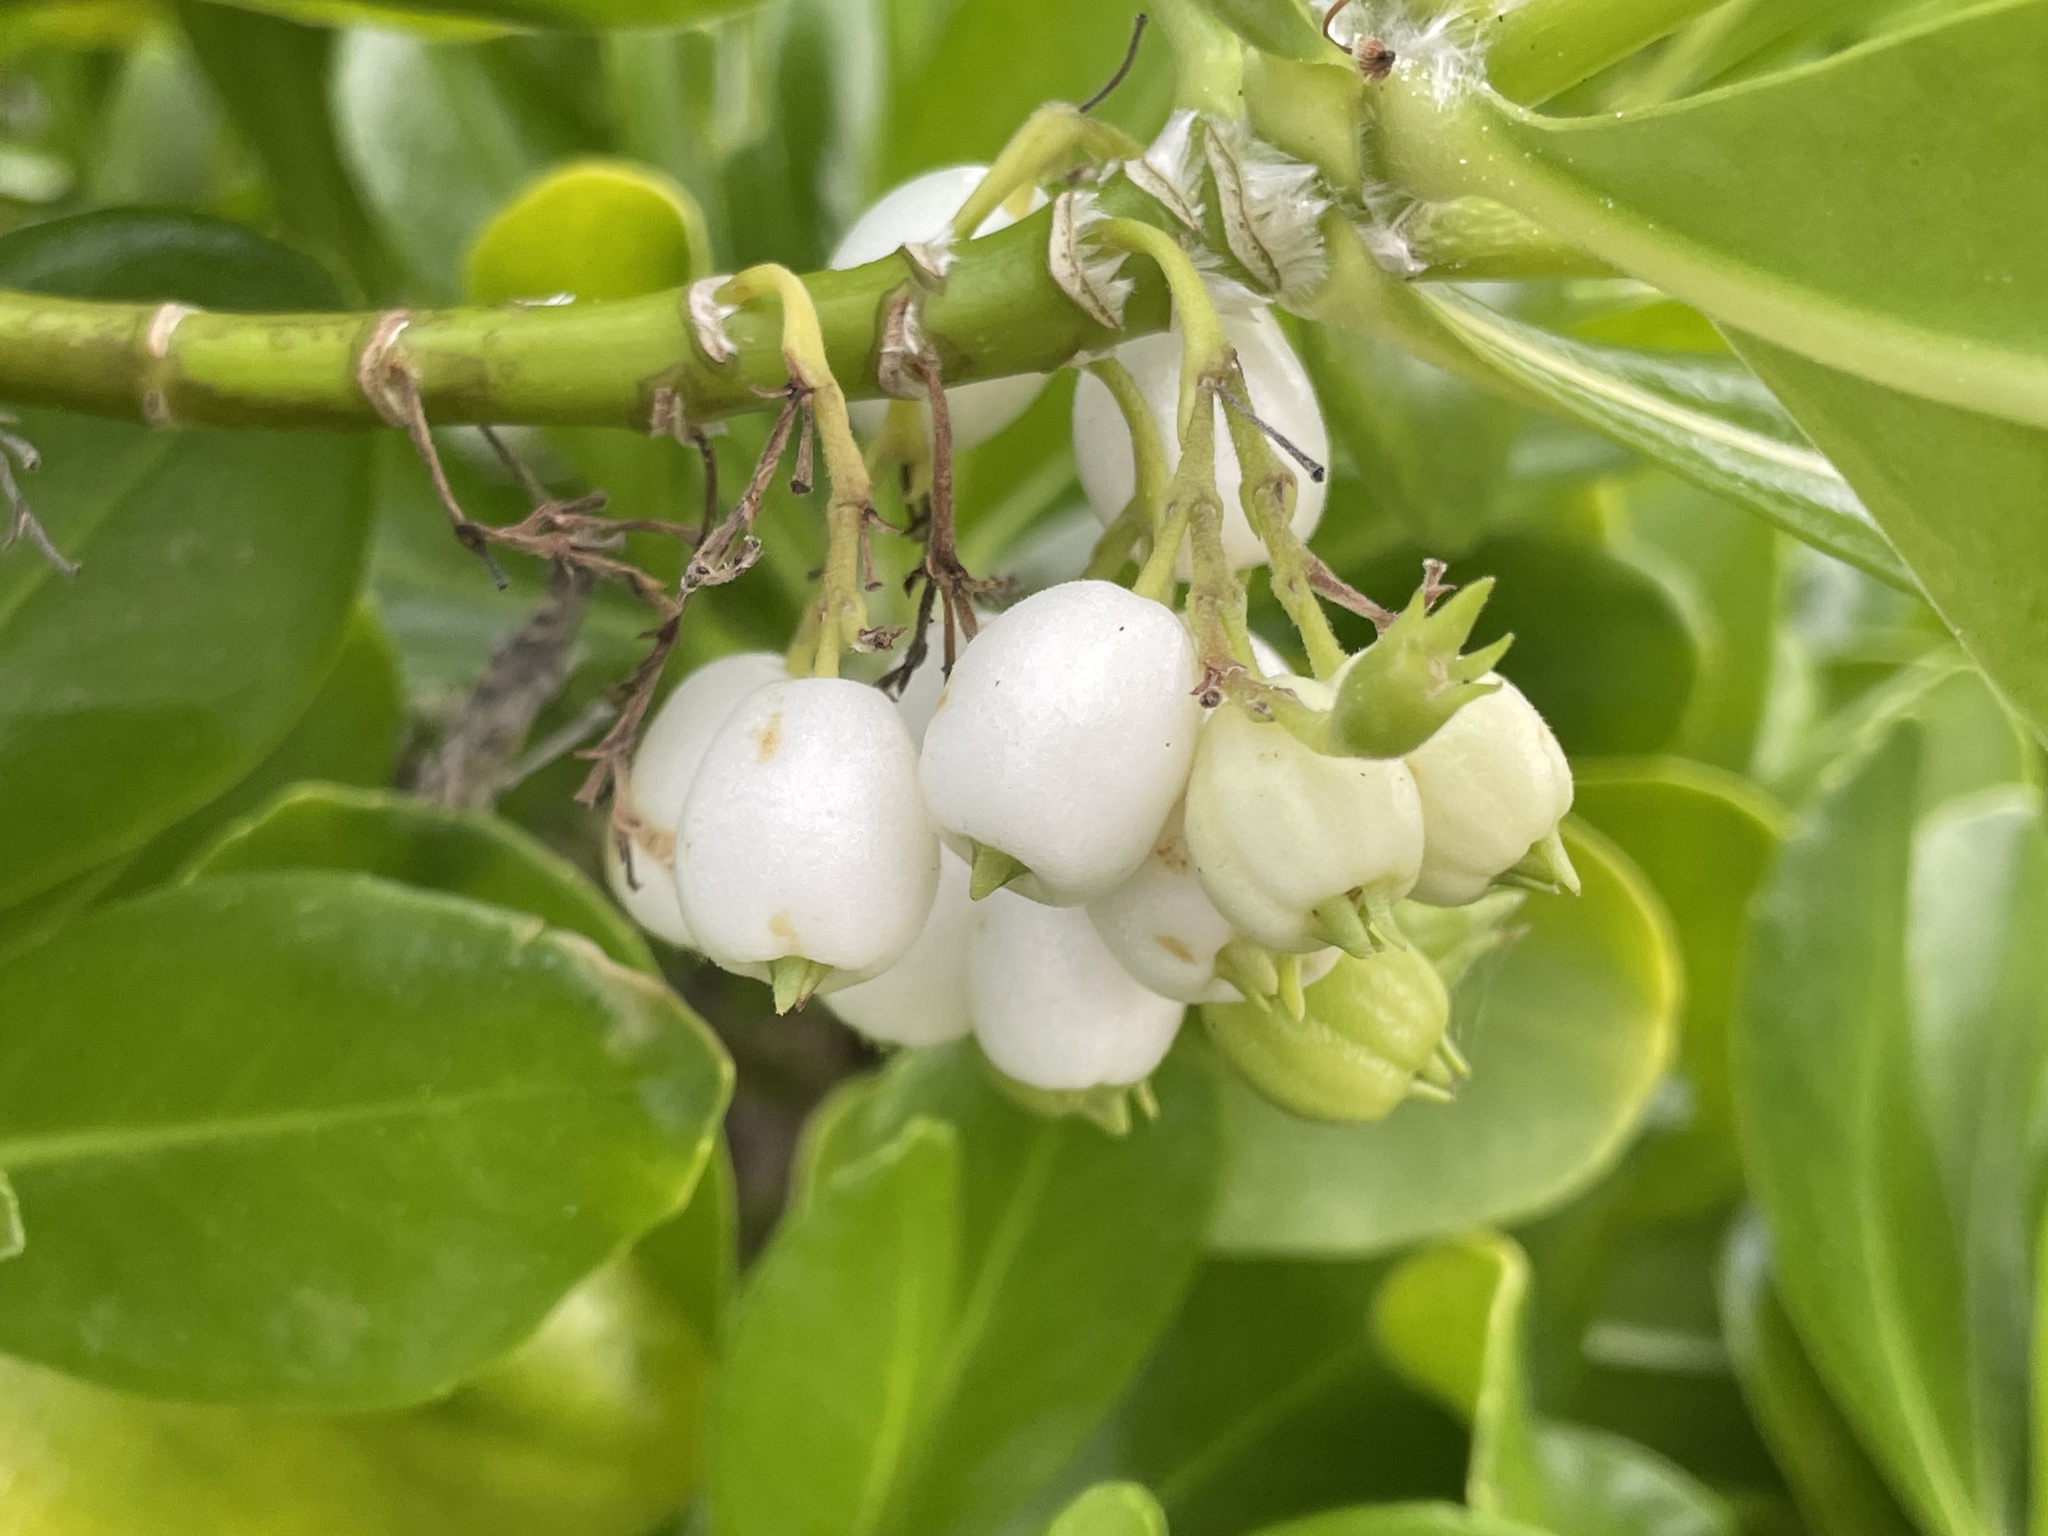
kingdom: Plantae
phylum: Tracheophyta
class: Magnoliopsida
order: Asterales
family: Goodeniaceae
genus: Scaevola
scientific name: Scaevola taccada
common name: Sea lettucetree
